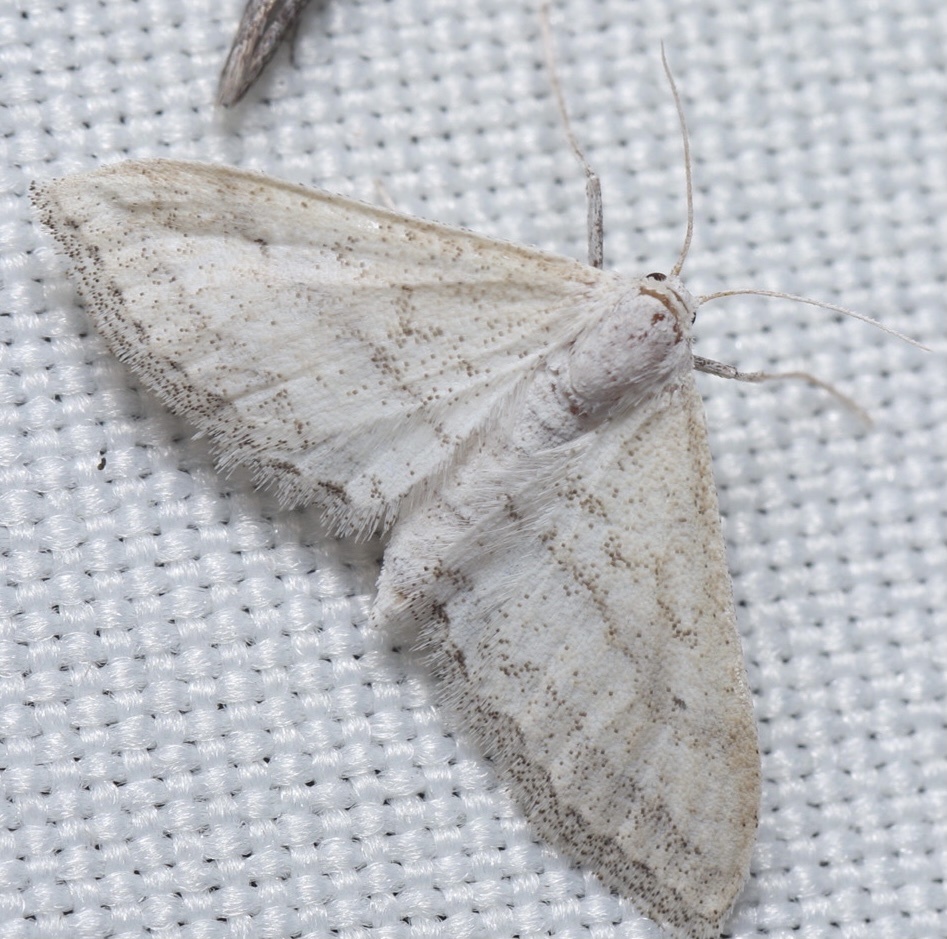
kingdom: Animalia
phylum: Arthropoda
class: Insecta
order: Lepidoptera
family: Geometridae
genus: Lobocleta
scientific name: Lobocleta lanceolata
